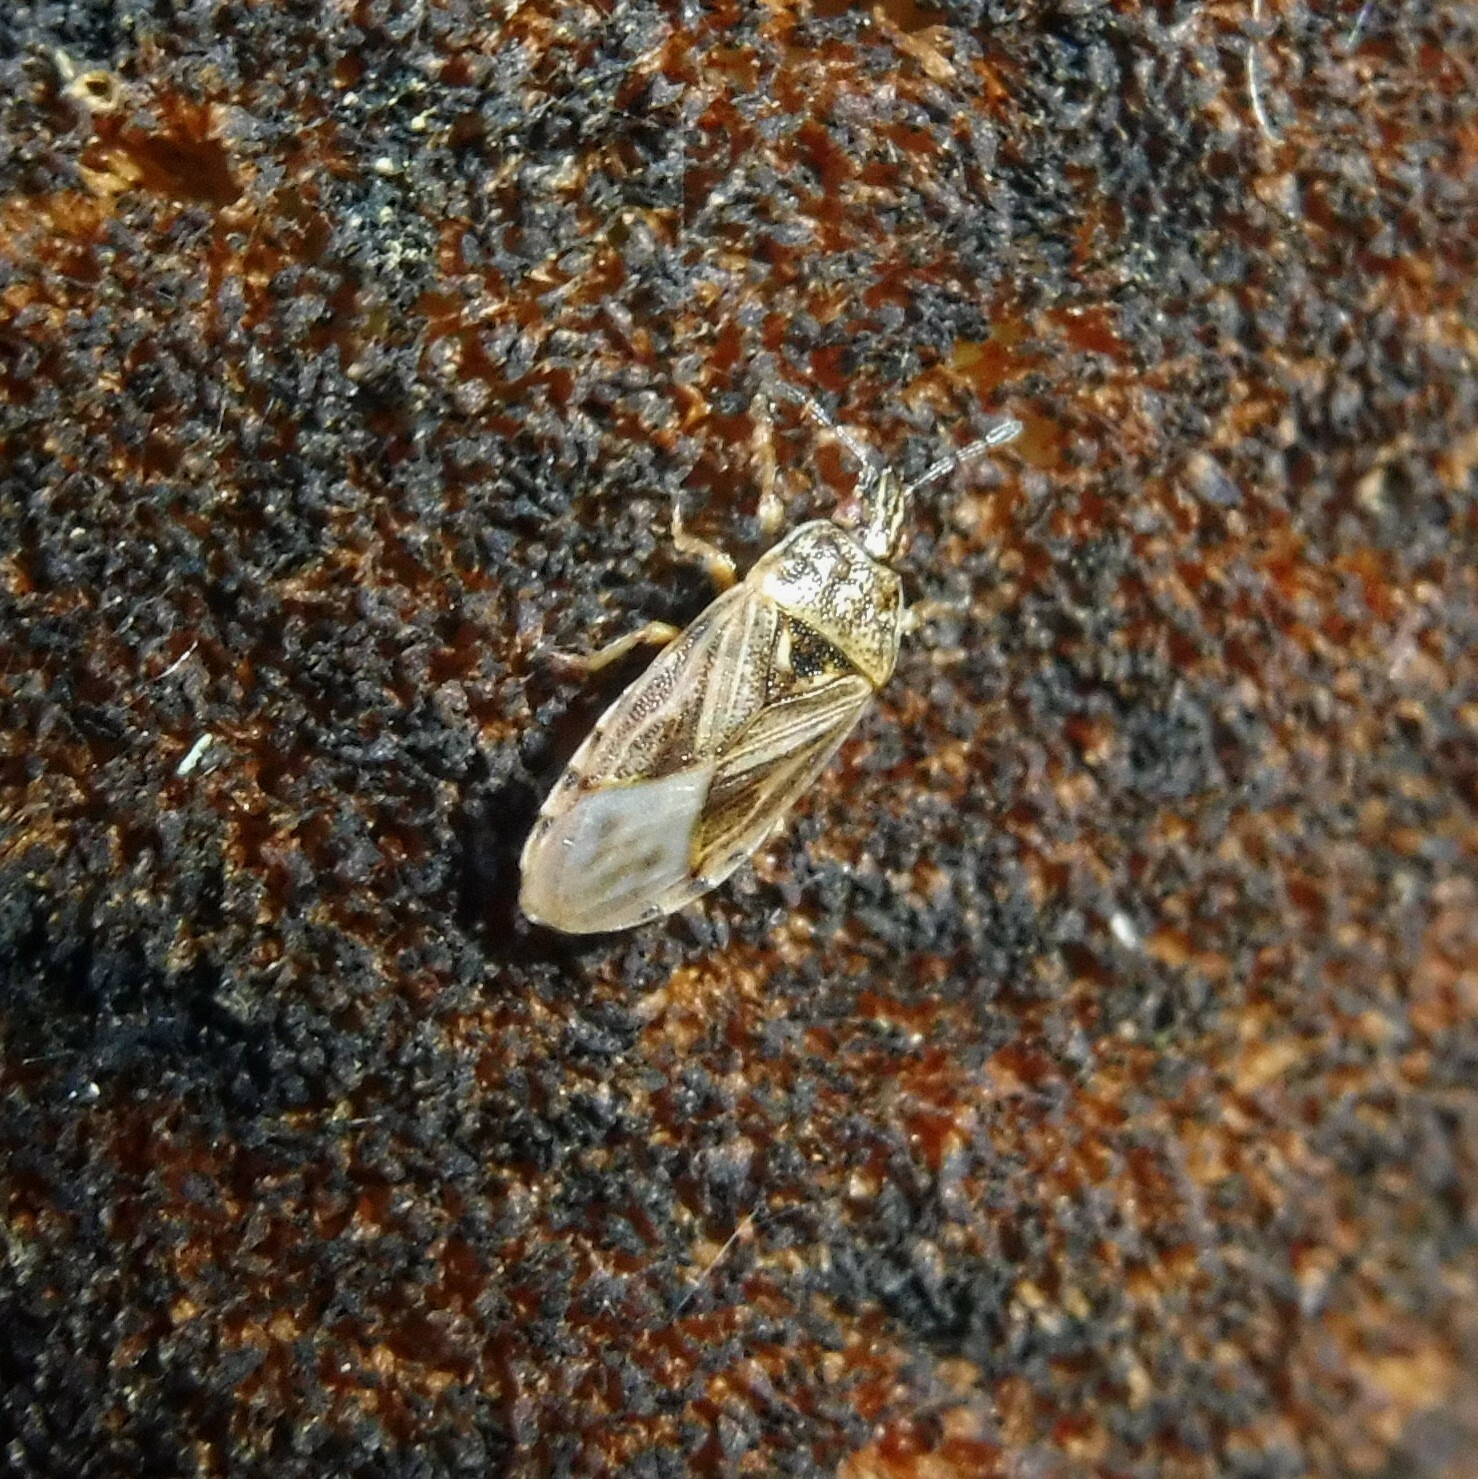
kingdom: Animalia
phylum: Arthropoda
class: Insecta
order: Hemiptera
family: Artheneidae
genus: Chilacis
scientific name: Chilacis typhae
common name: Cattail bug
